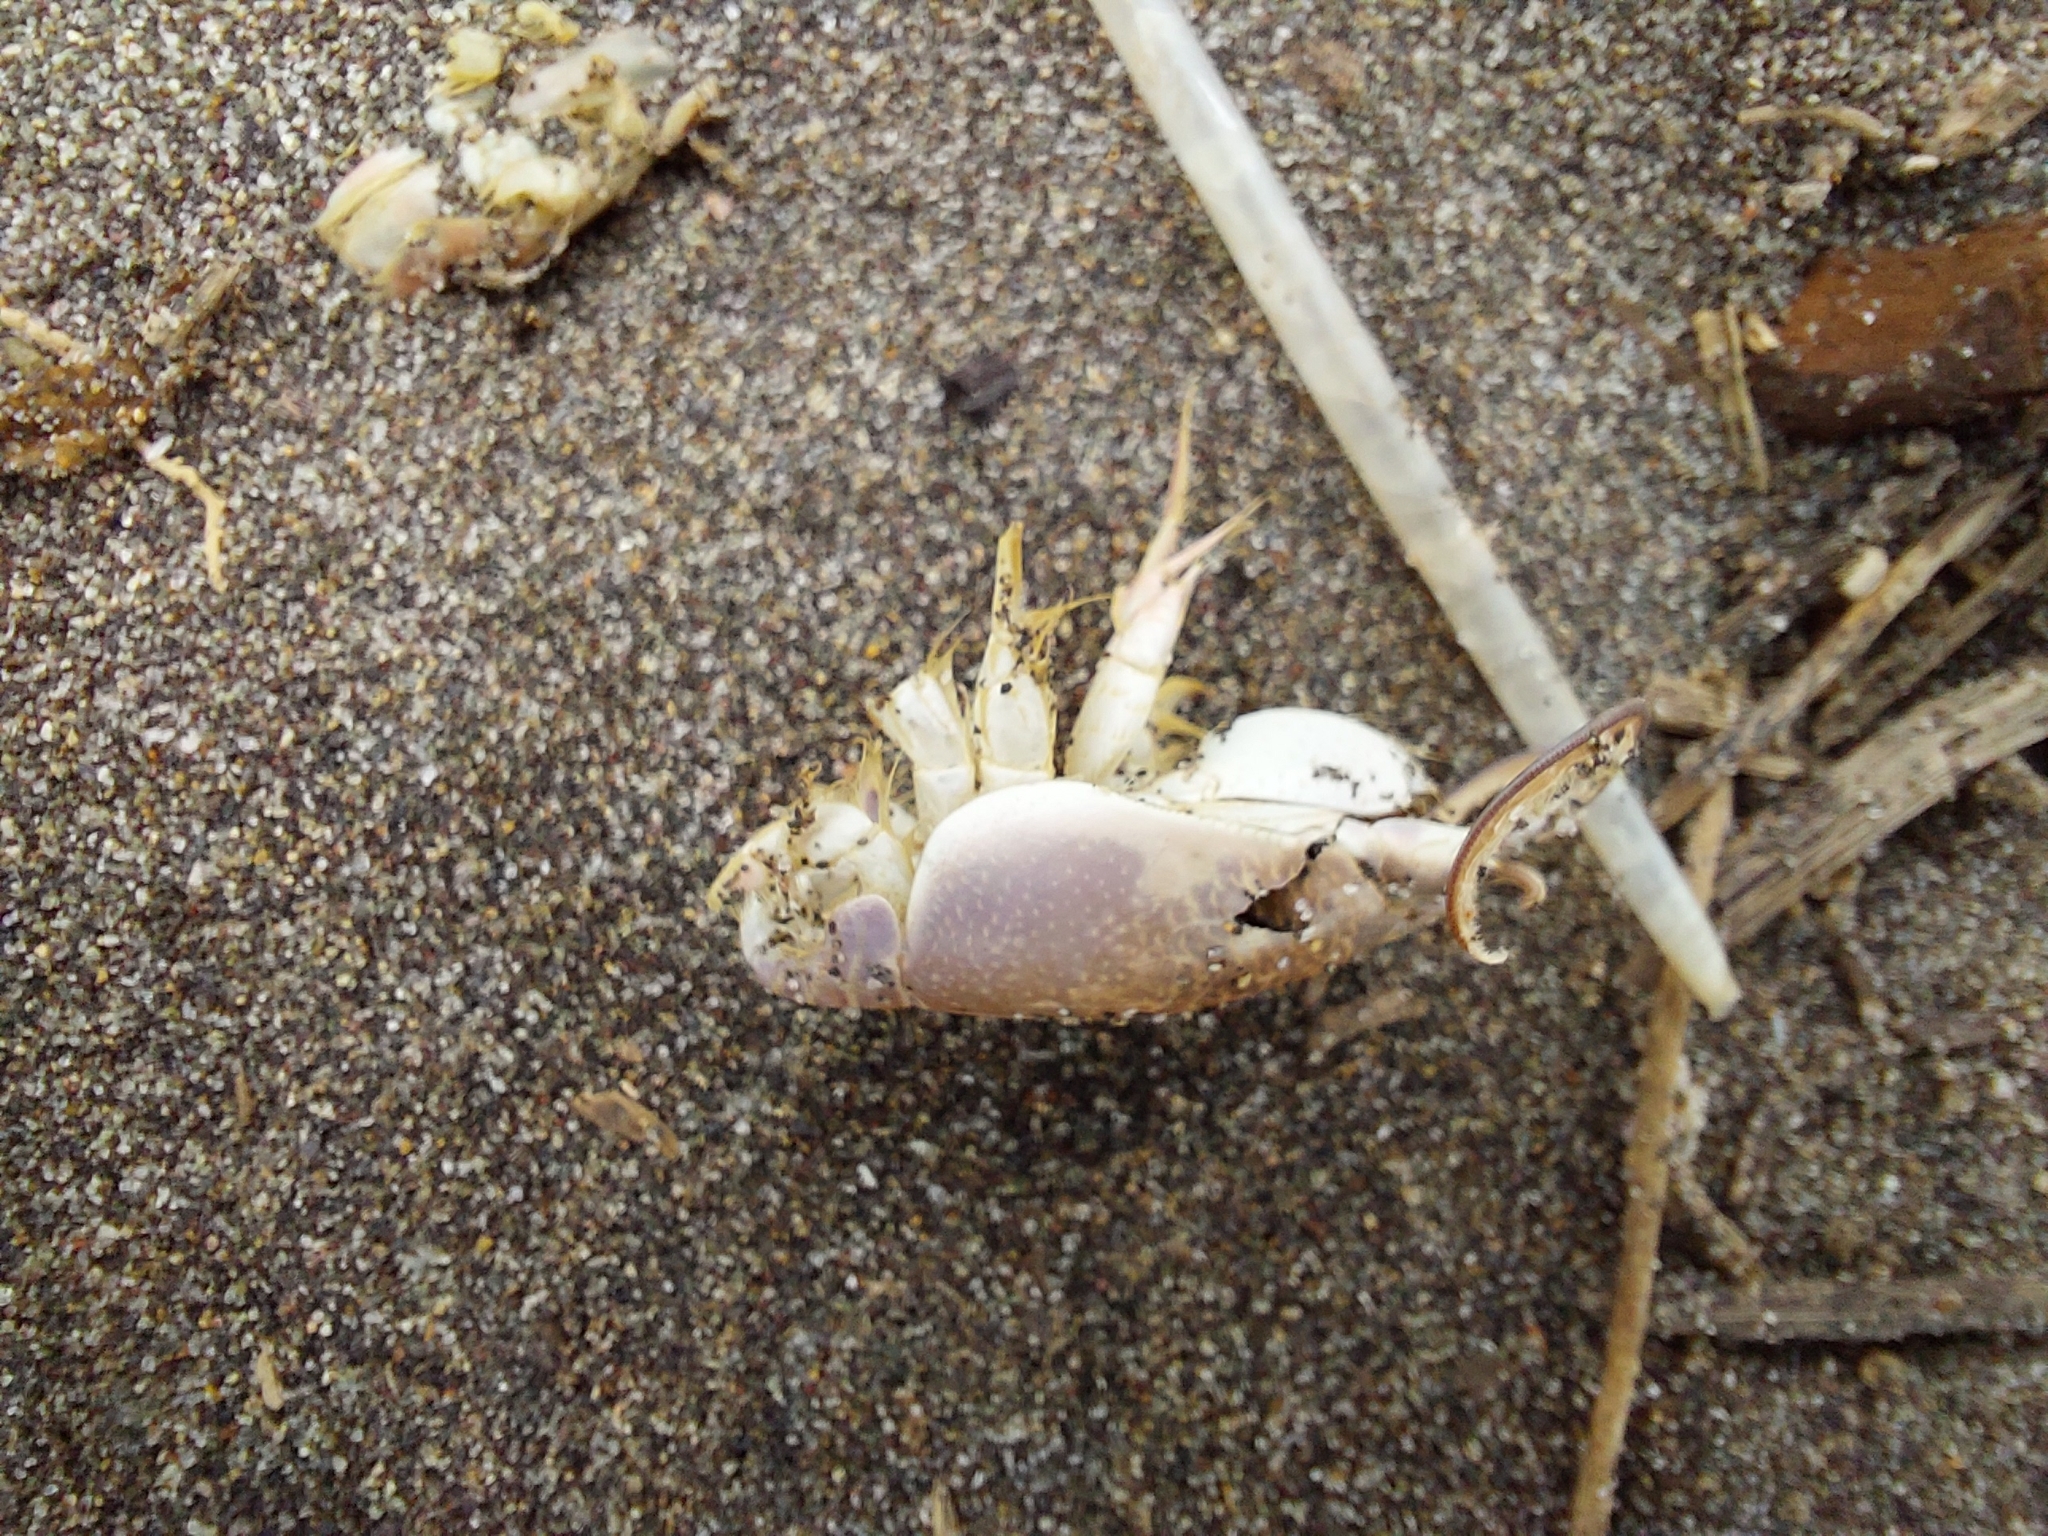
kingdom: Animalia
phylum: Arthropoda
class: Malacostraca
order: Decapoda
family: Hippidae
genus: Emerita
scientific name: Emerita analoga
